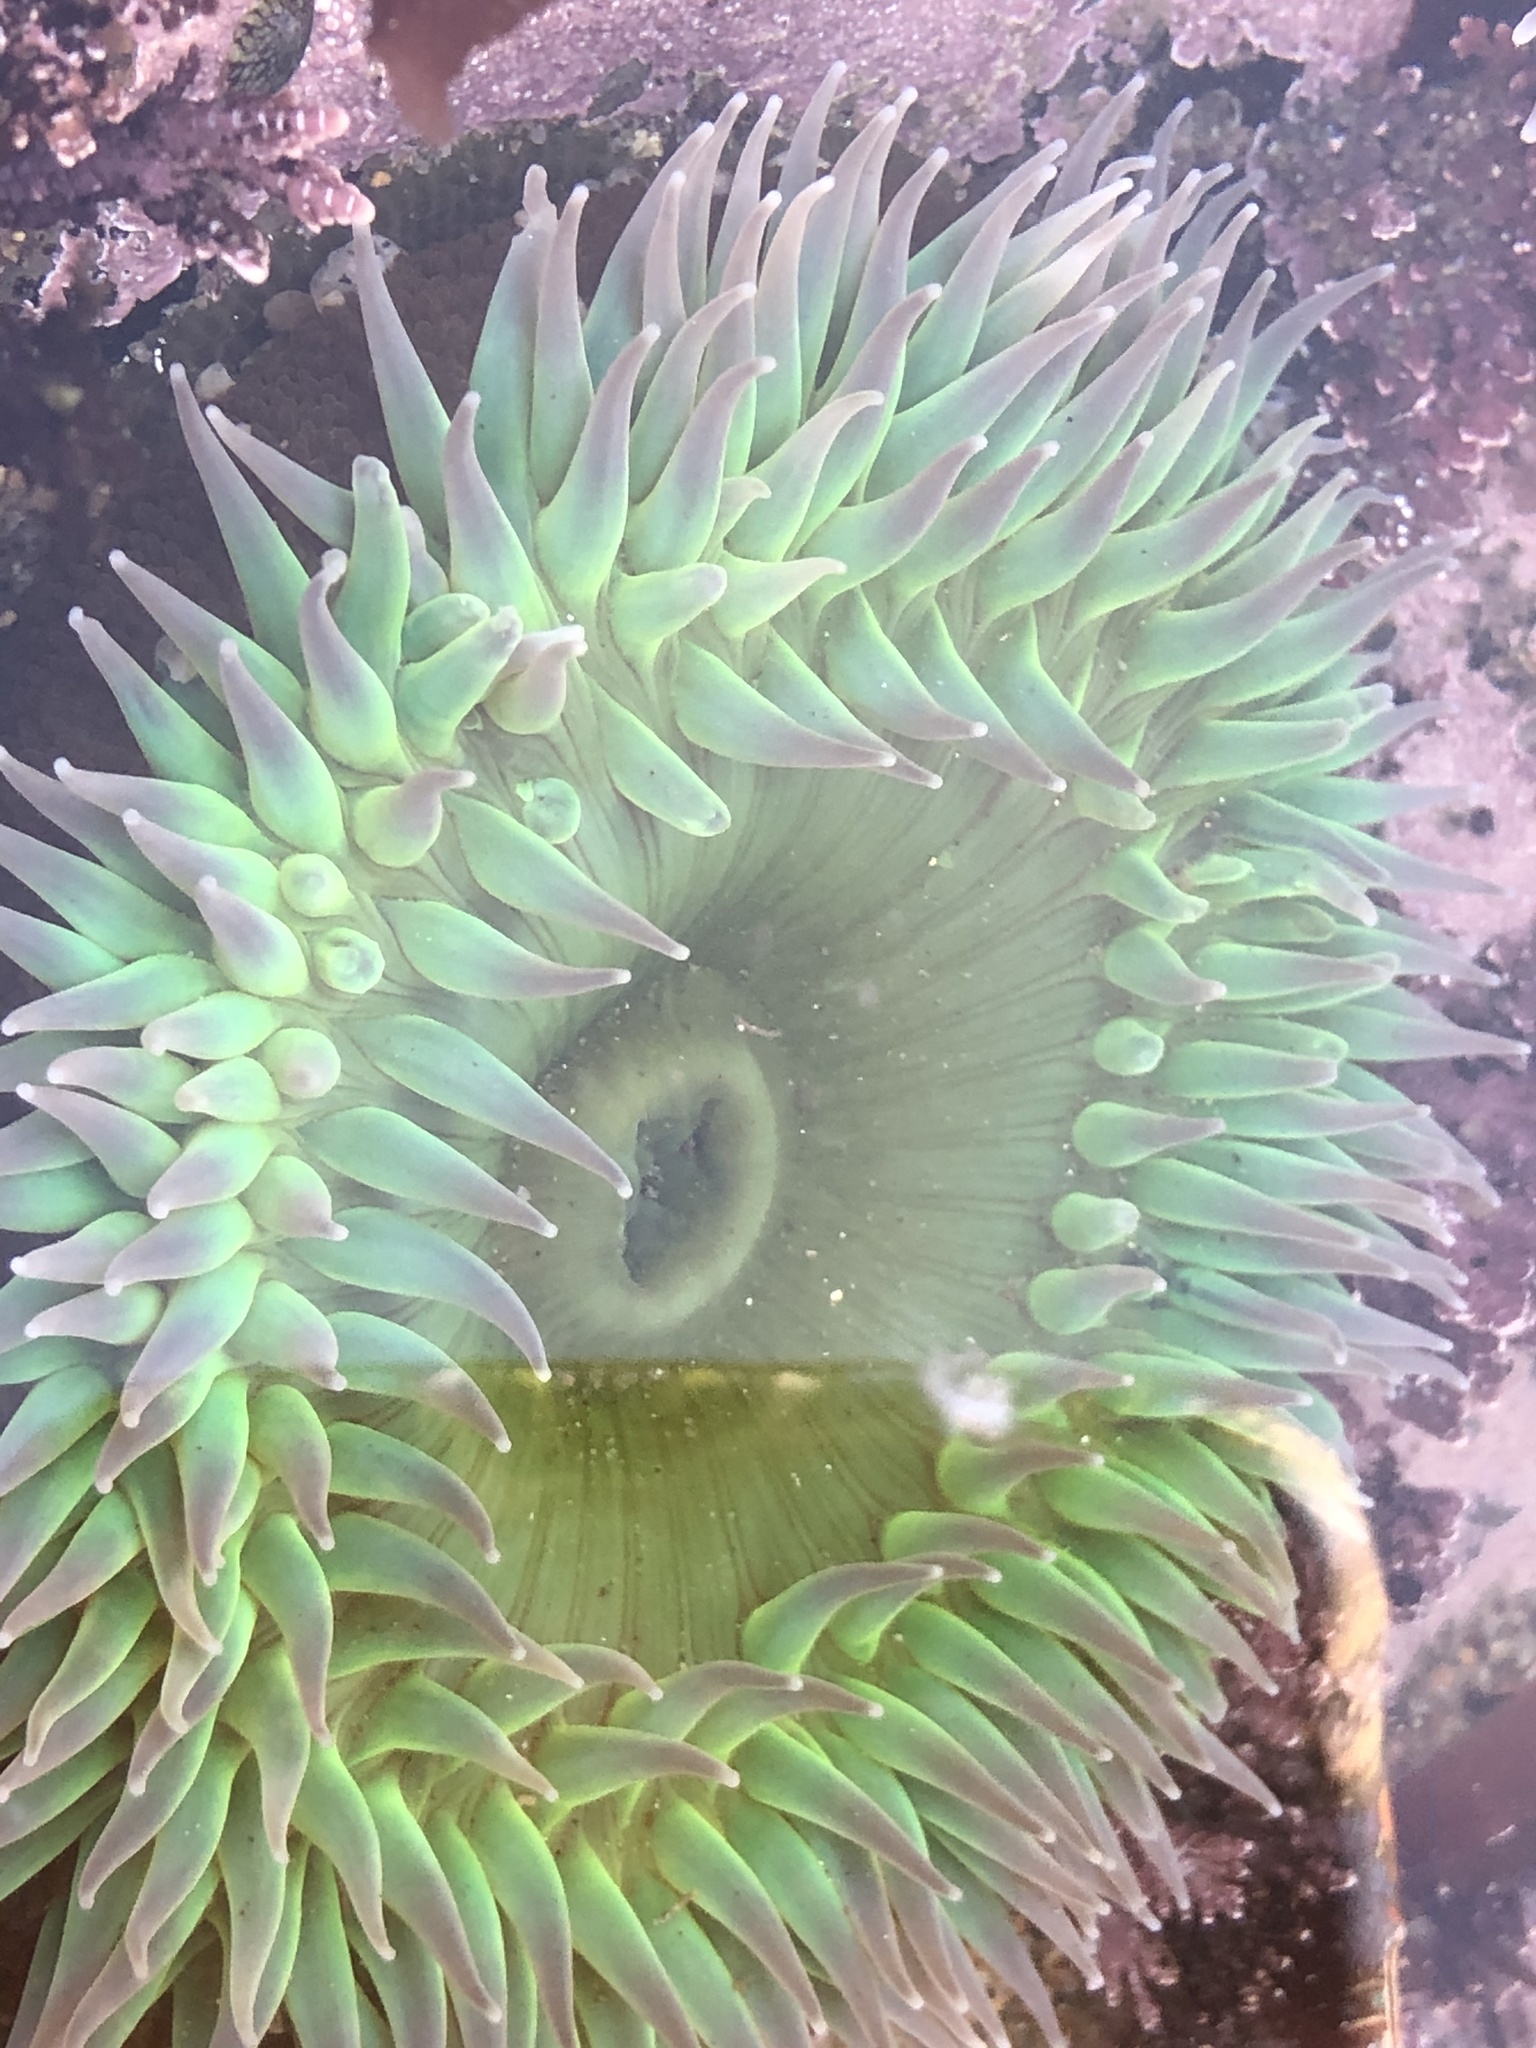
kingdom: Animalia
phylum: Cnidaria
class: Anthozoa
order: Actiniaria
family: Actiniidae
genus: Anthopleura
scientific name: Anthopleura xanthogrammica
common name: Giant green anemone
